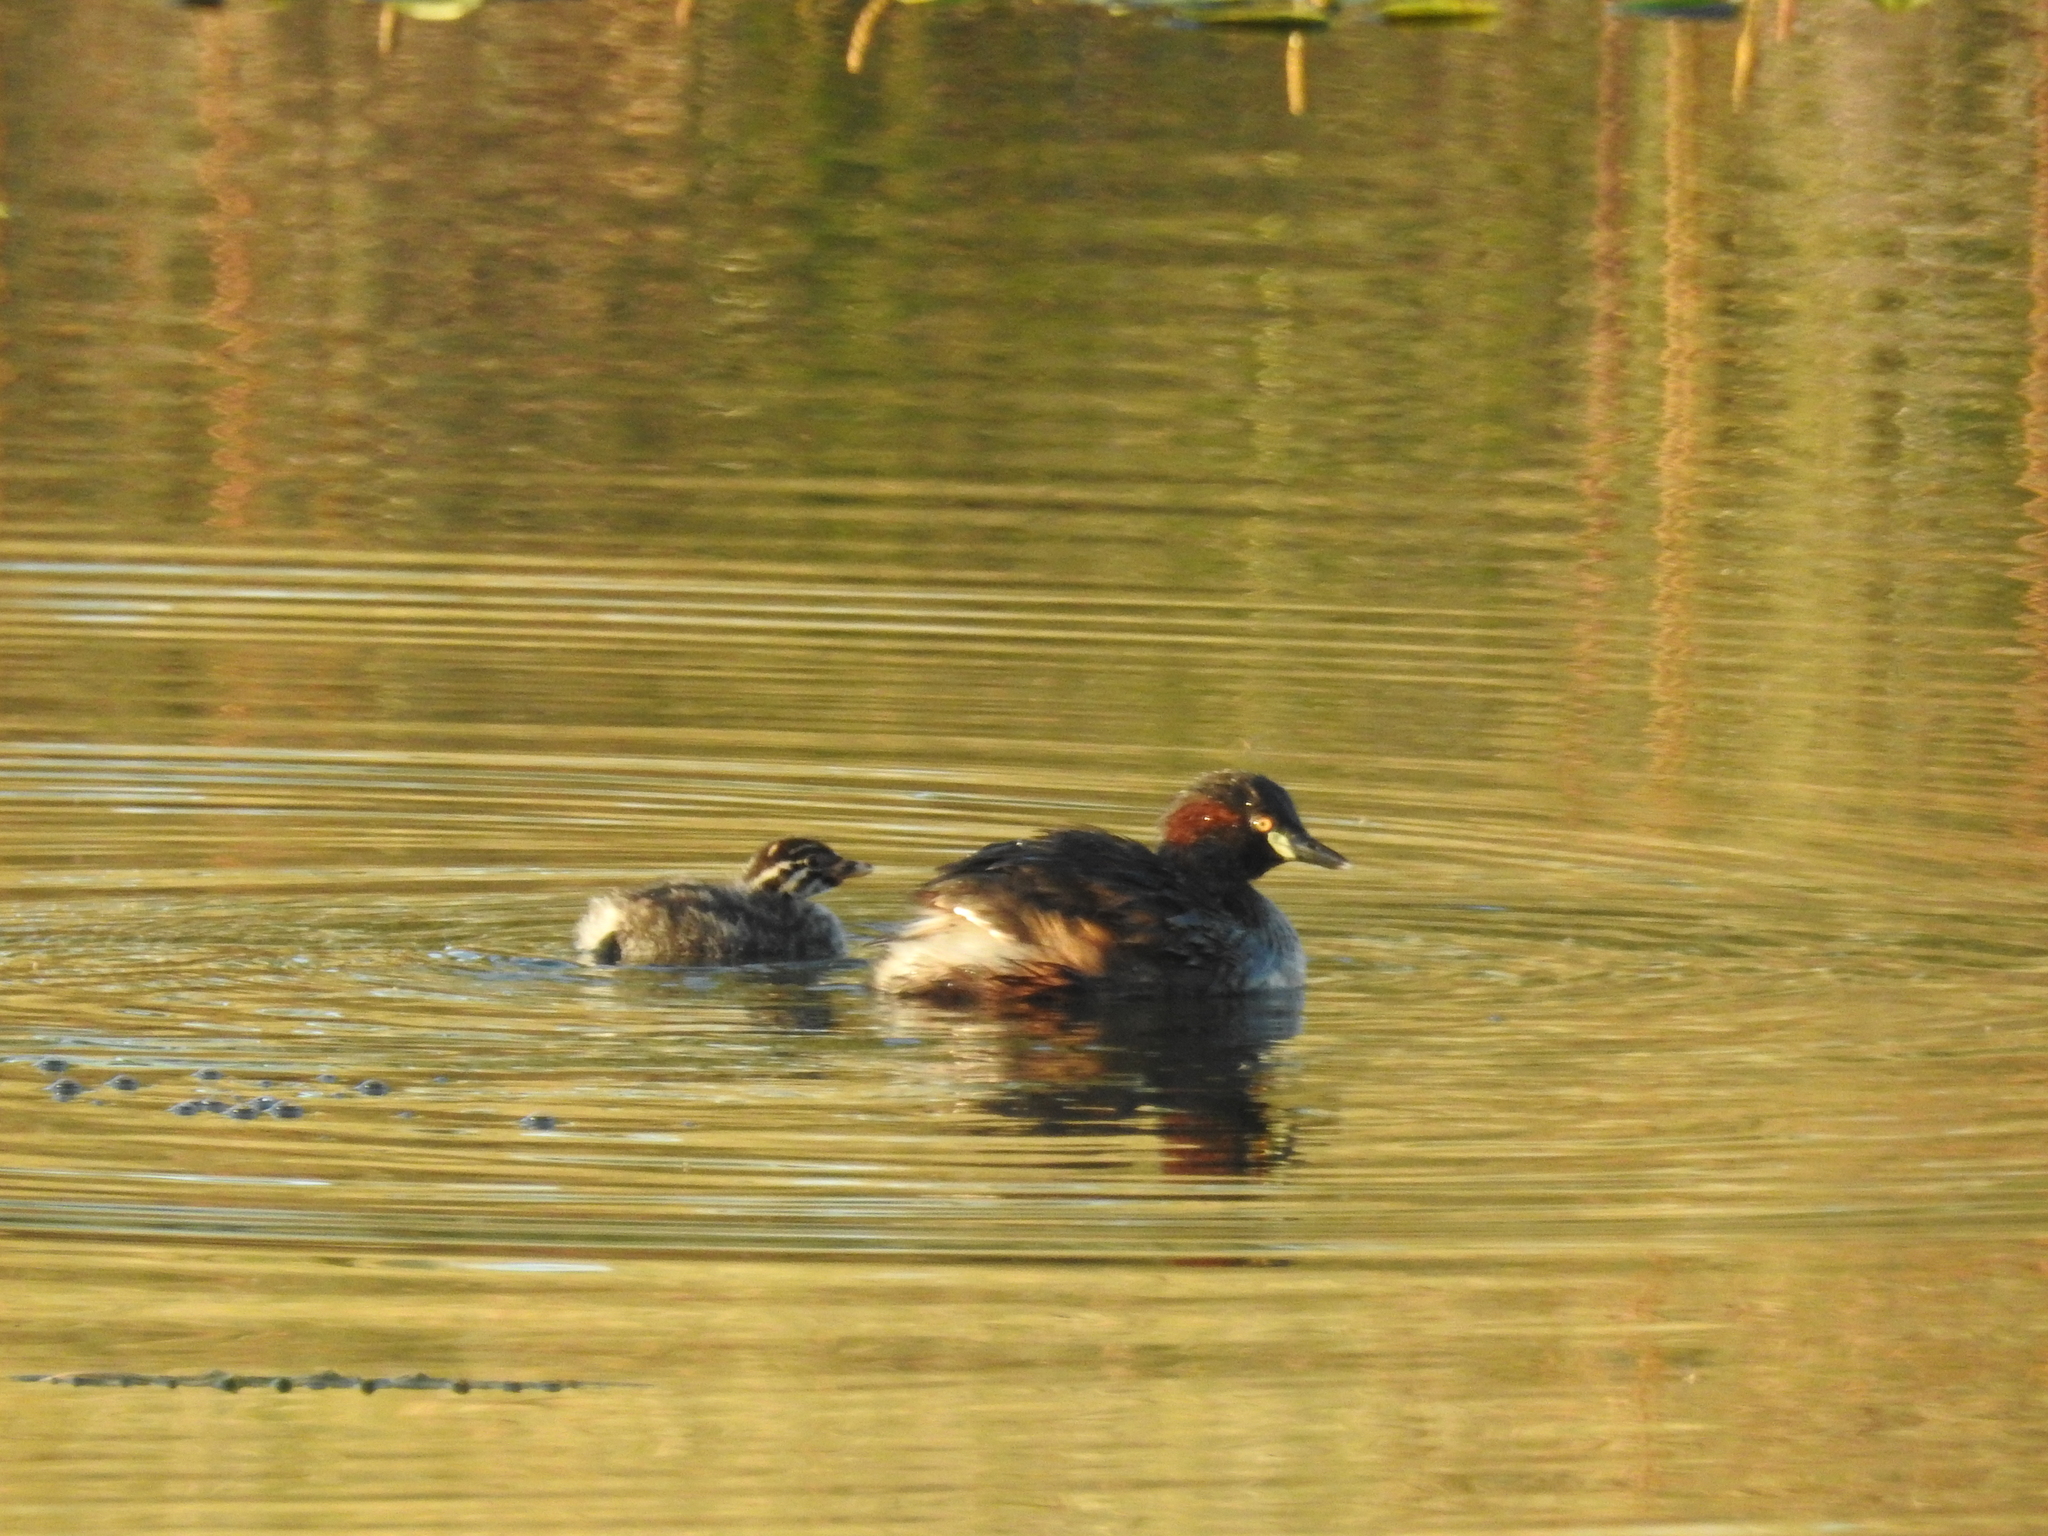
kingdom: Animalia
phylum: Chordata
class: Aves
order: Podicipediformes
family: Podicipedidae
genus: Tachybaptus
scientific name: Tachybaptus novaehollandiae
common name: Australasian grebe
